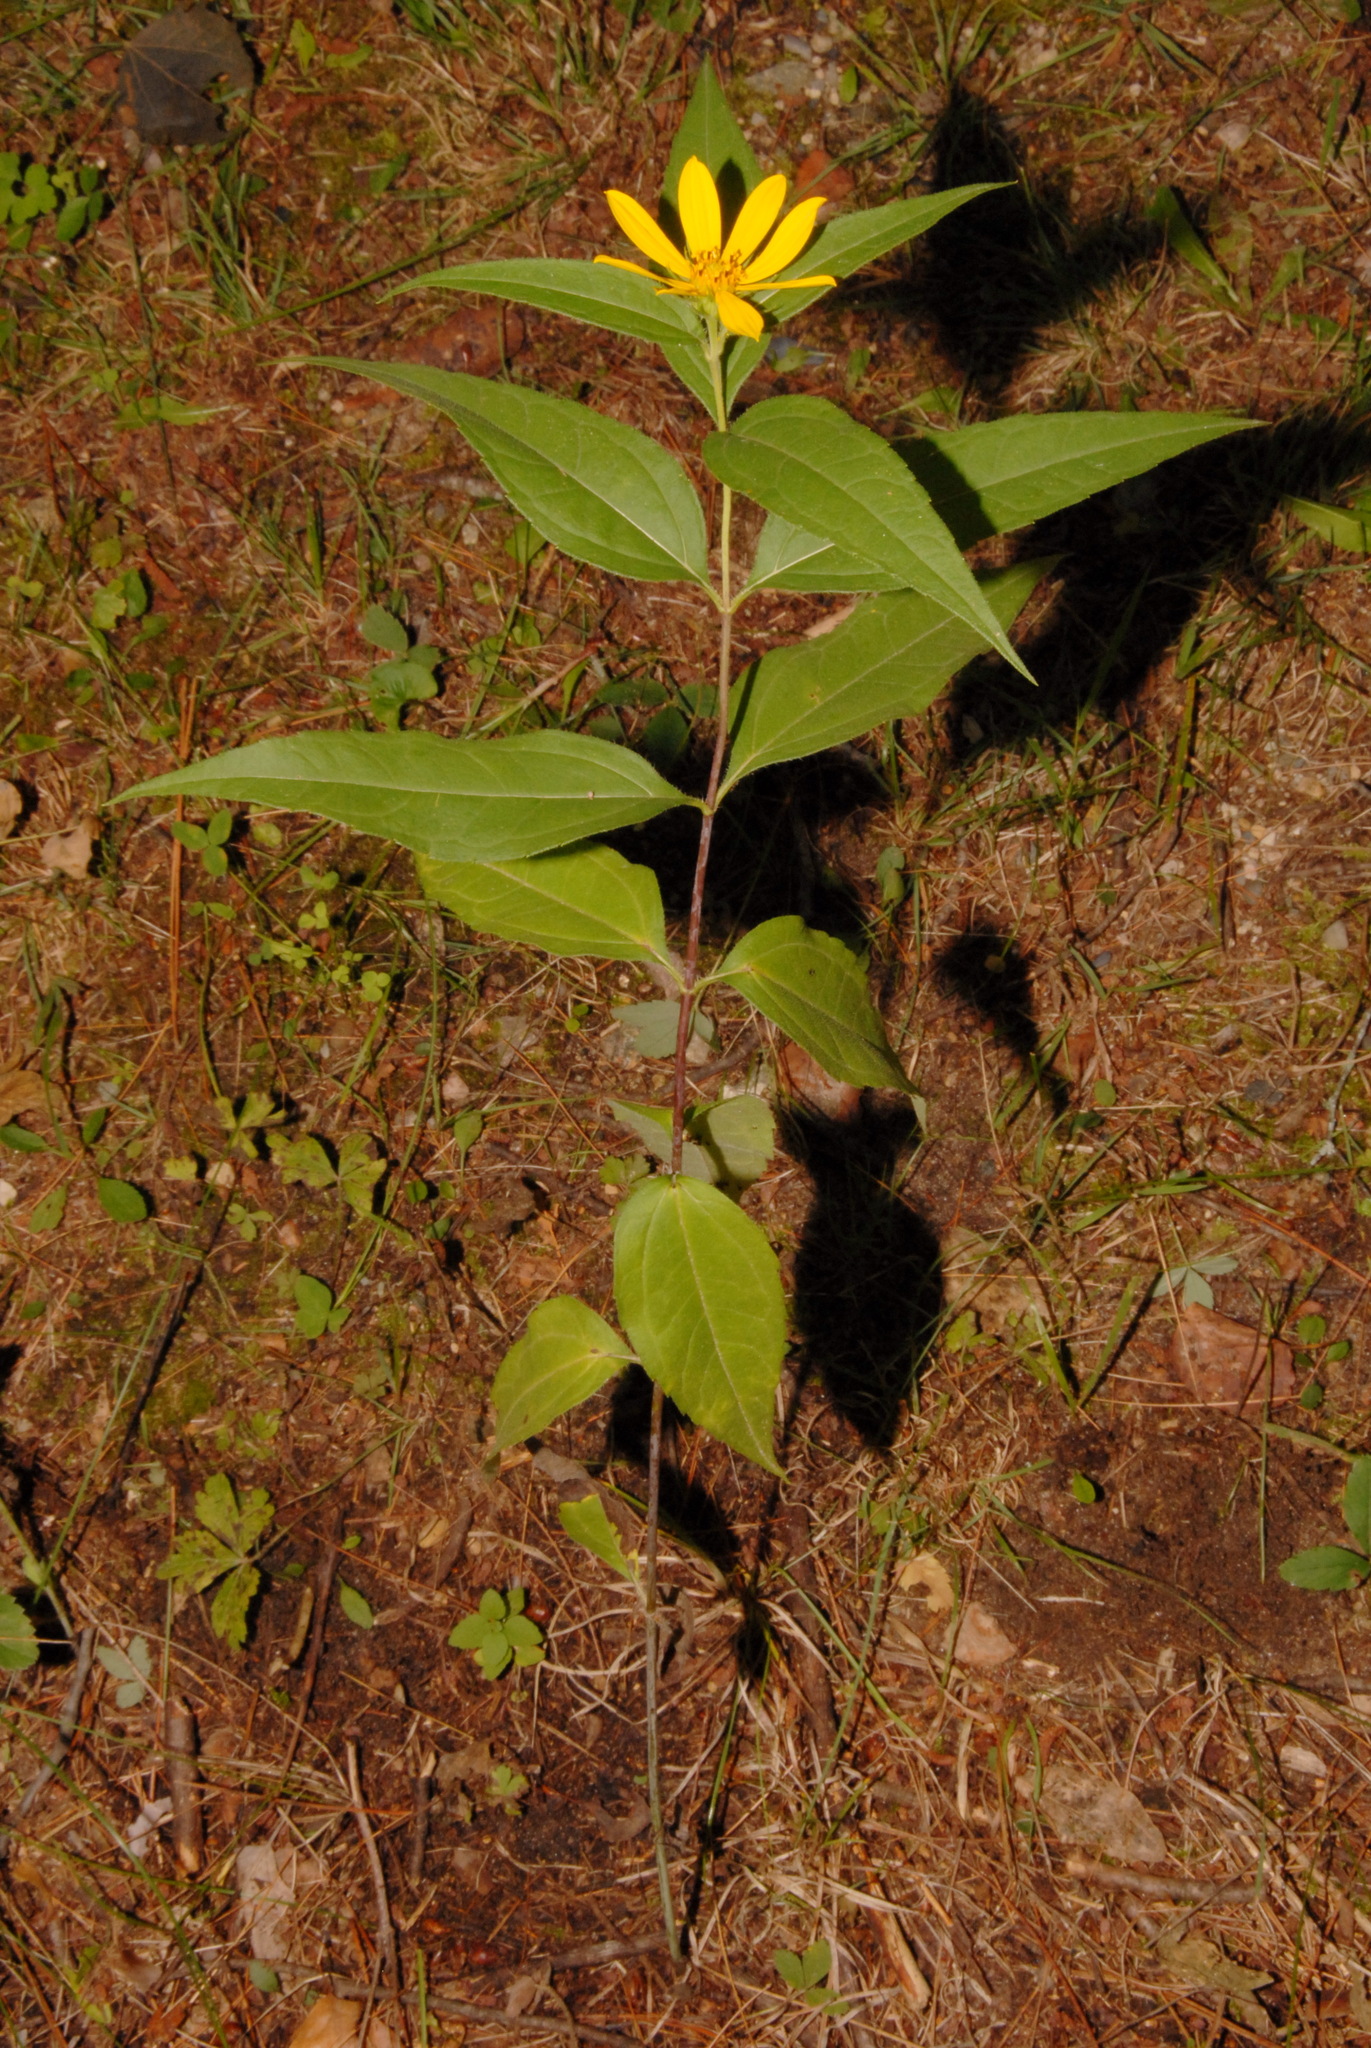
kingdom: Plantae
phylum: Tracheophyta
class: Magnoliopsida
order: Asterales
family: Asteraceae
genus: Helianthus
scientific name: Helianthus strumosus
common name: Pale-leaved sunflower
